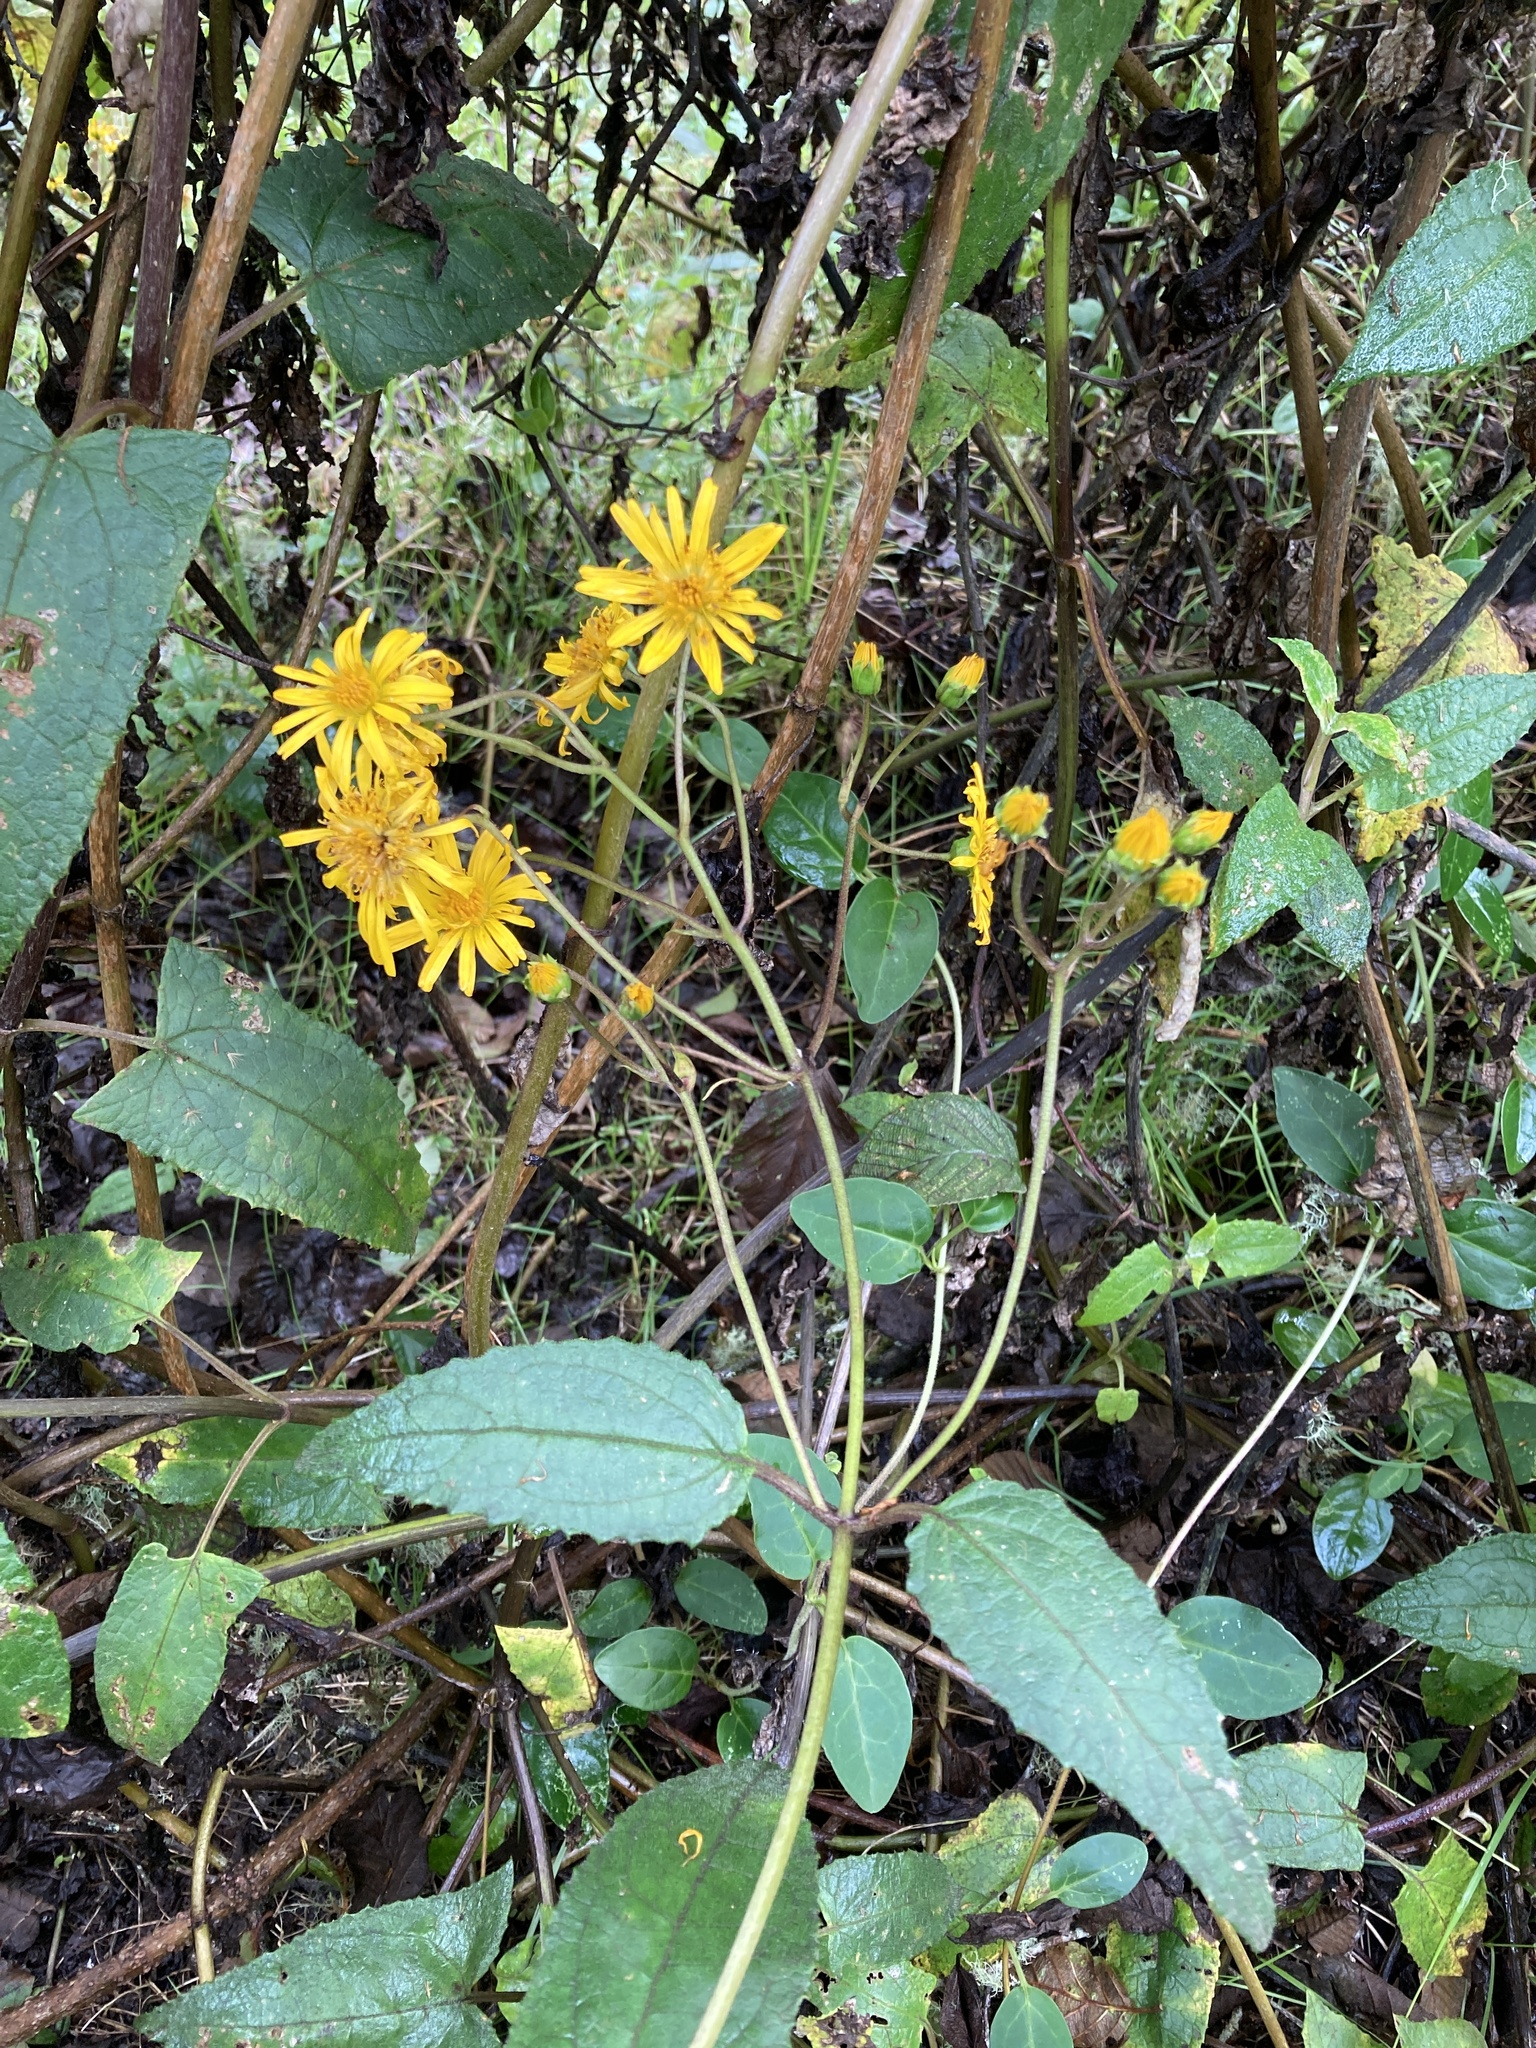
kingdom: Plantae
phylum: Tracheophyta
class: Magnoliopsida
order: Asterales
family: Asteraceae
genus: Munnozia
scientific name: Munnozia senecionidis
